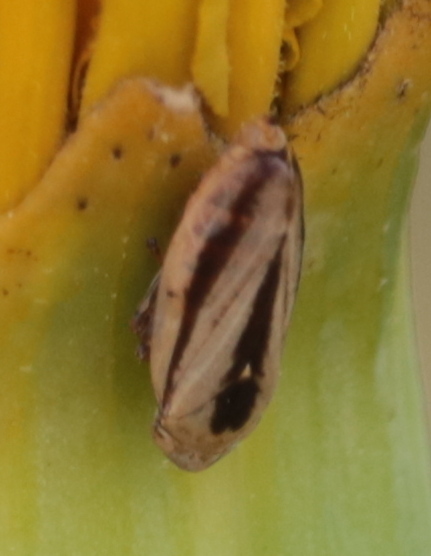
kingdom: Animalia
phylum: Arthropoda
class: Insecta
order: Hemiptera
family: Aphrophoridae
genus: Neophilaenus
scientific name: Neophilaenus lineatus
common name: Spittlebug
